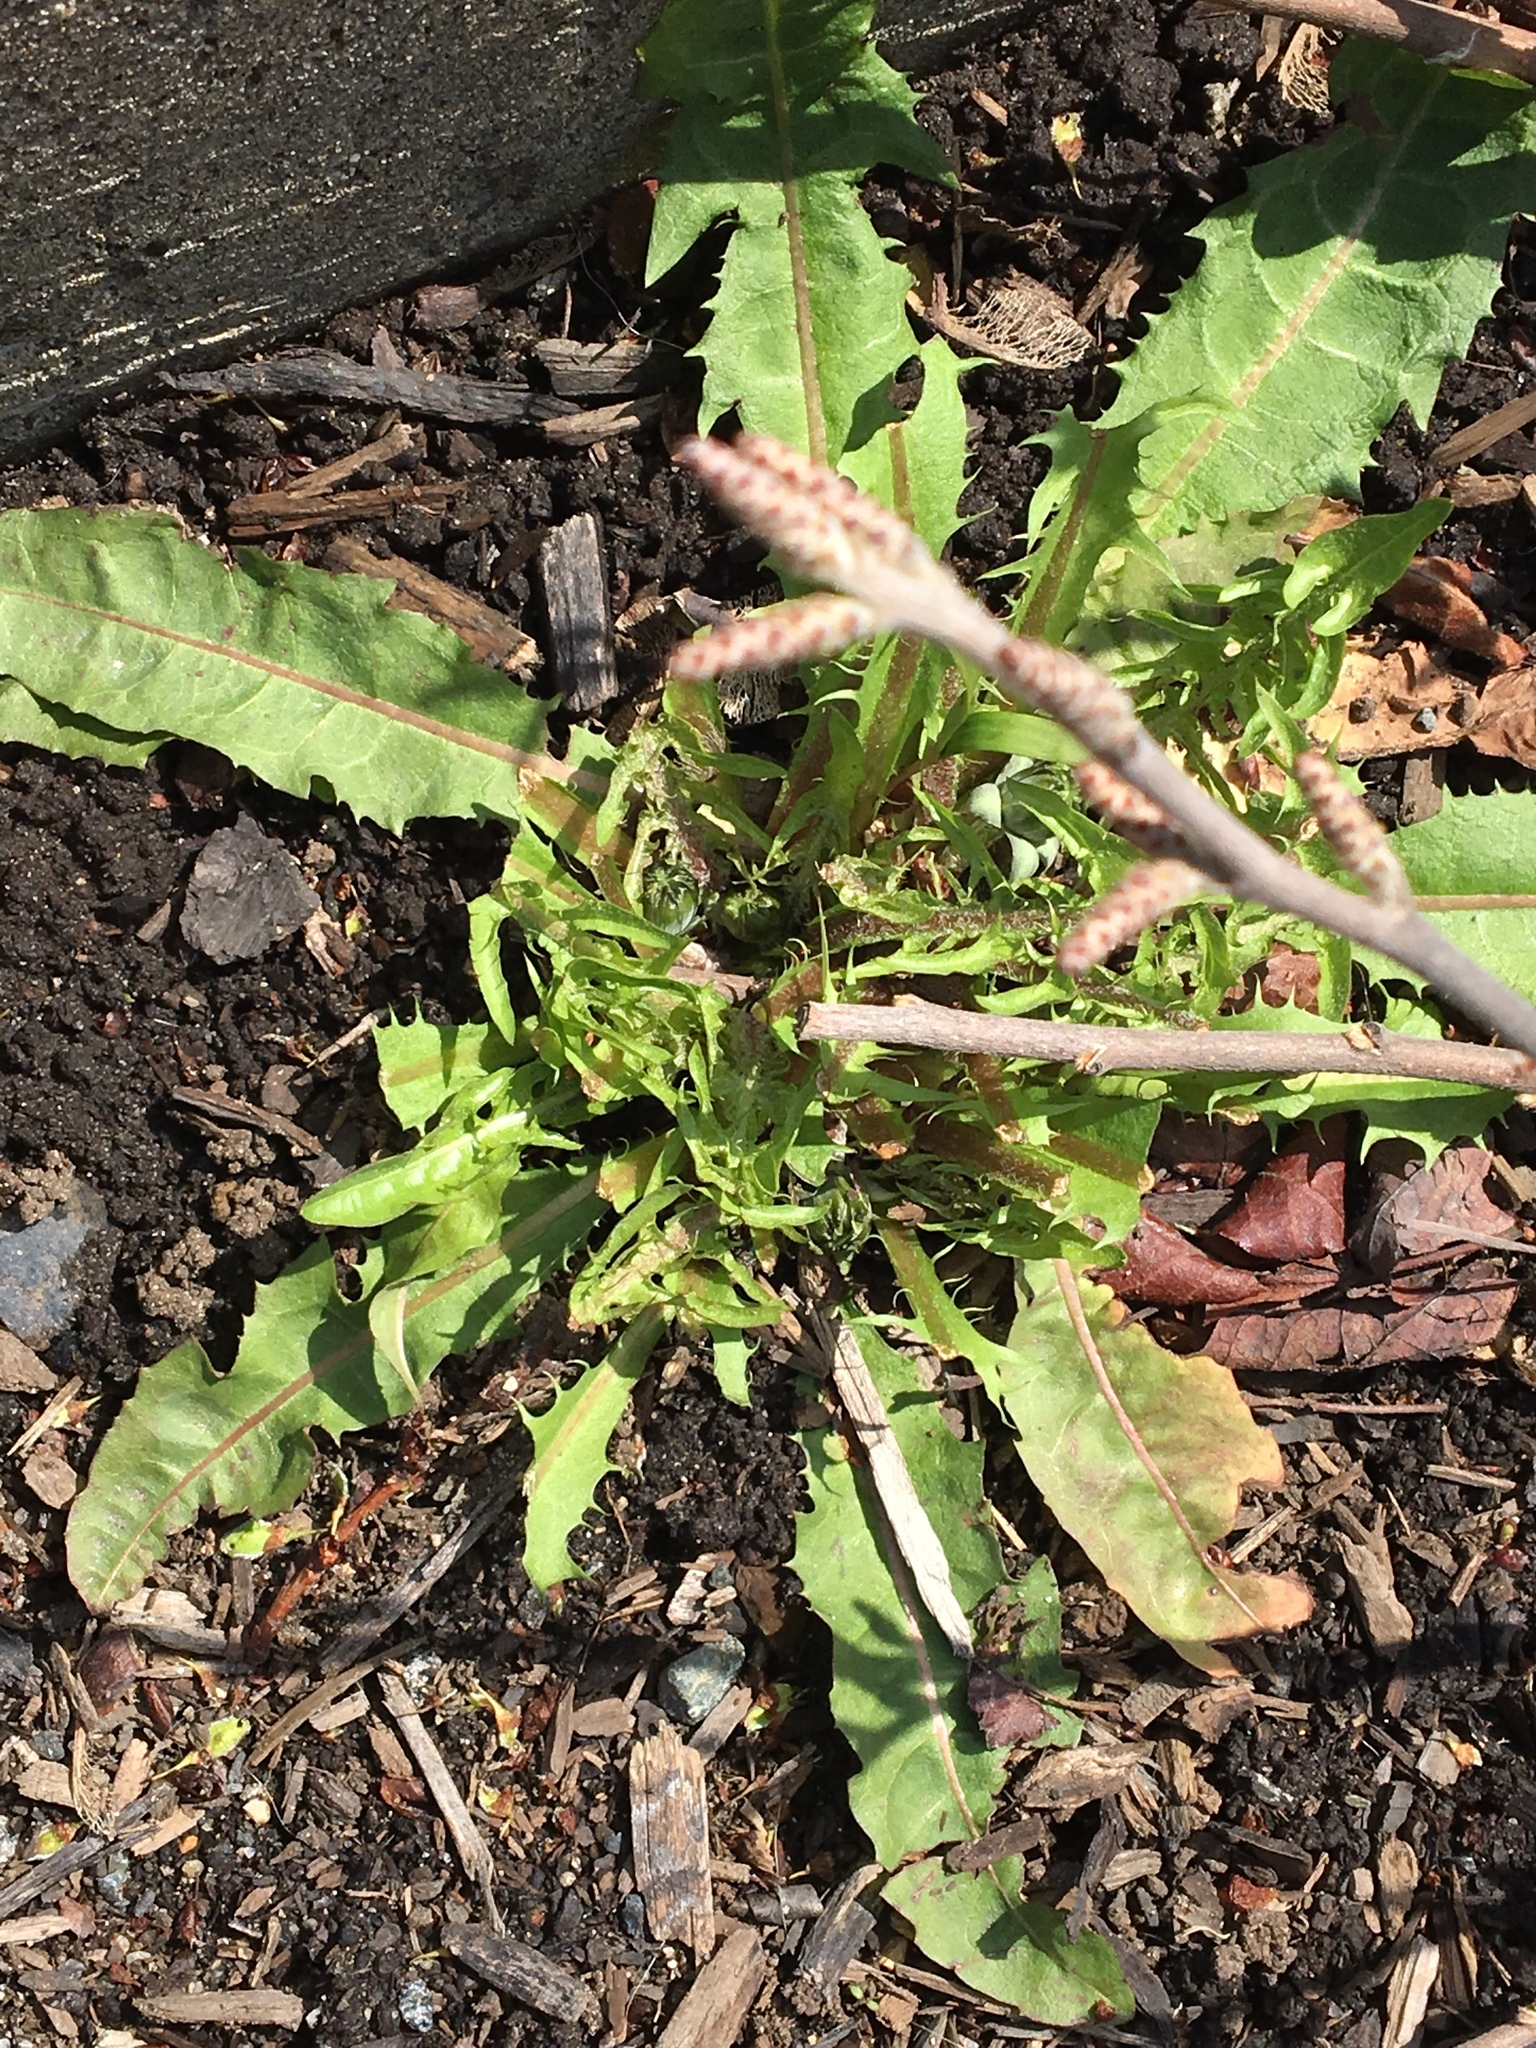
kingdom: Plantae
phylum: Tracheophyta
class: Magnoliopsida
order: Asterales
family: Asteraceae
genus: Taraxacum
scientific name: Taraxacum officinale
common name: Common dandelion
